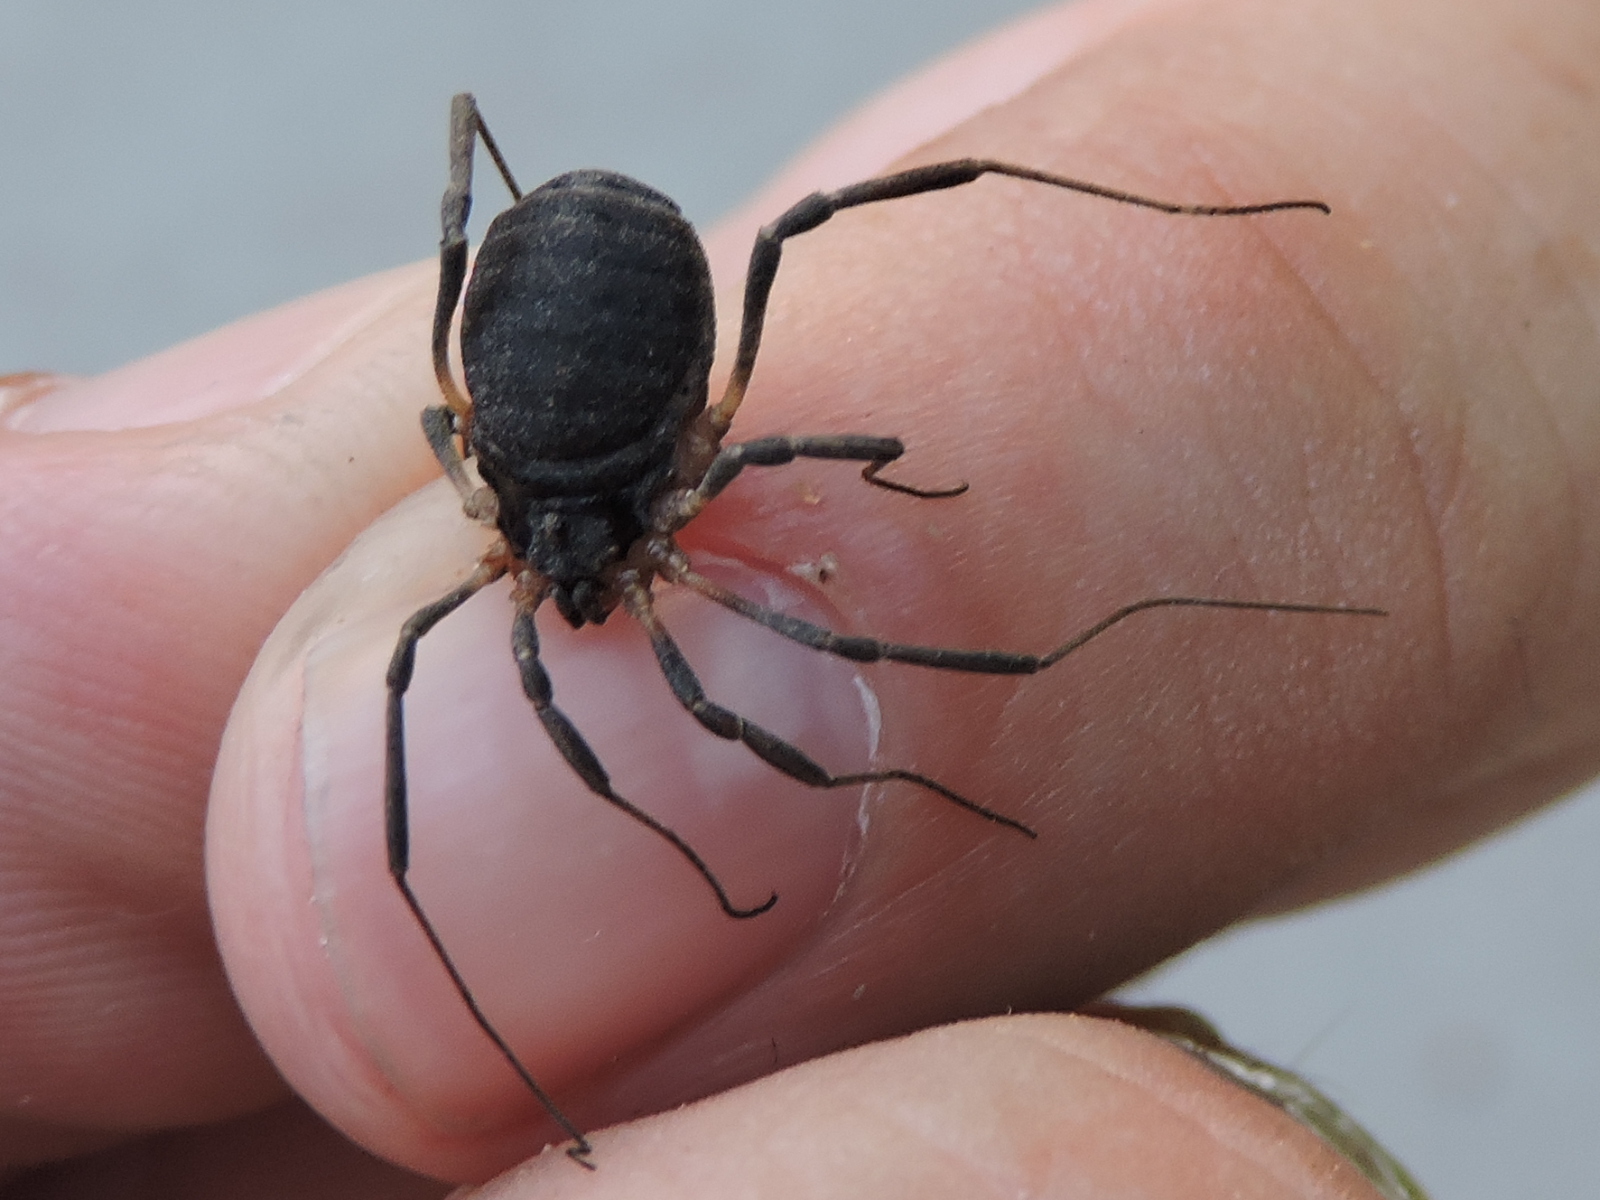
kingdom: Animalia
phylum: Arthropoda
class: Arachnida
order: Opiliones
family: Sclerosomatidae
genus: Eumesosoma
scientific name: Eumesosoma roeweri
